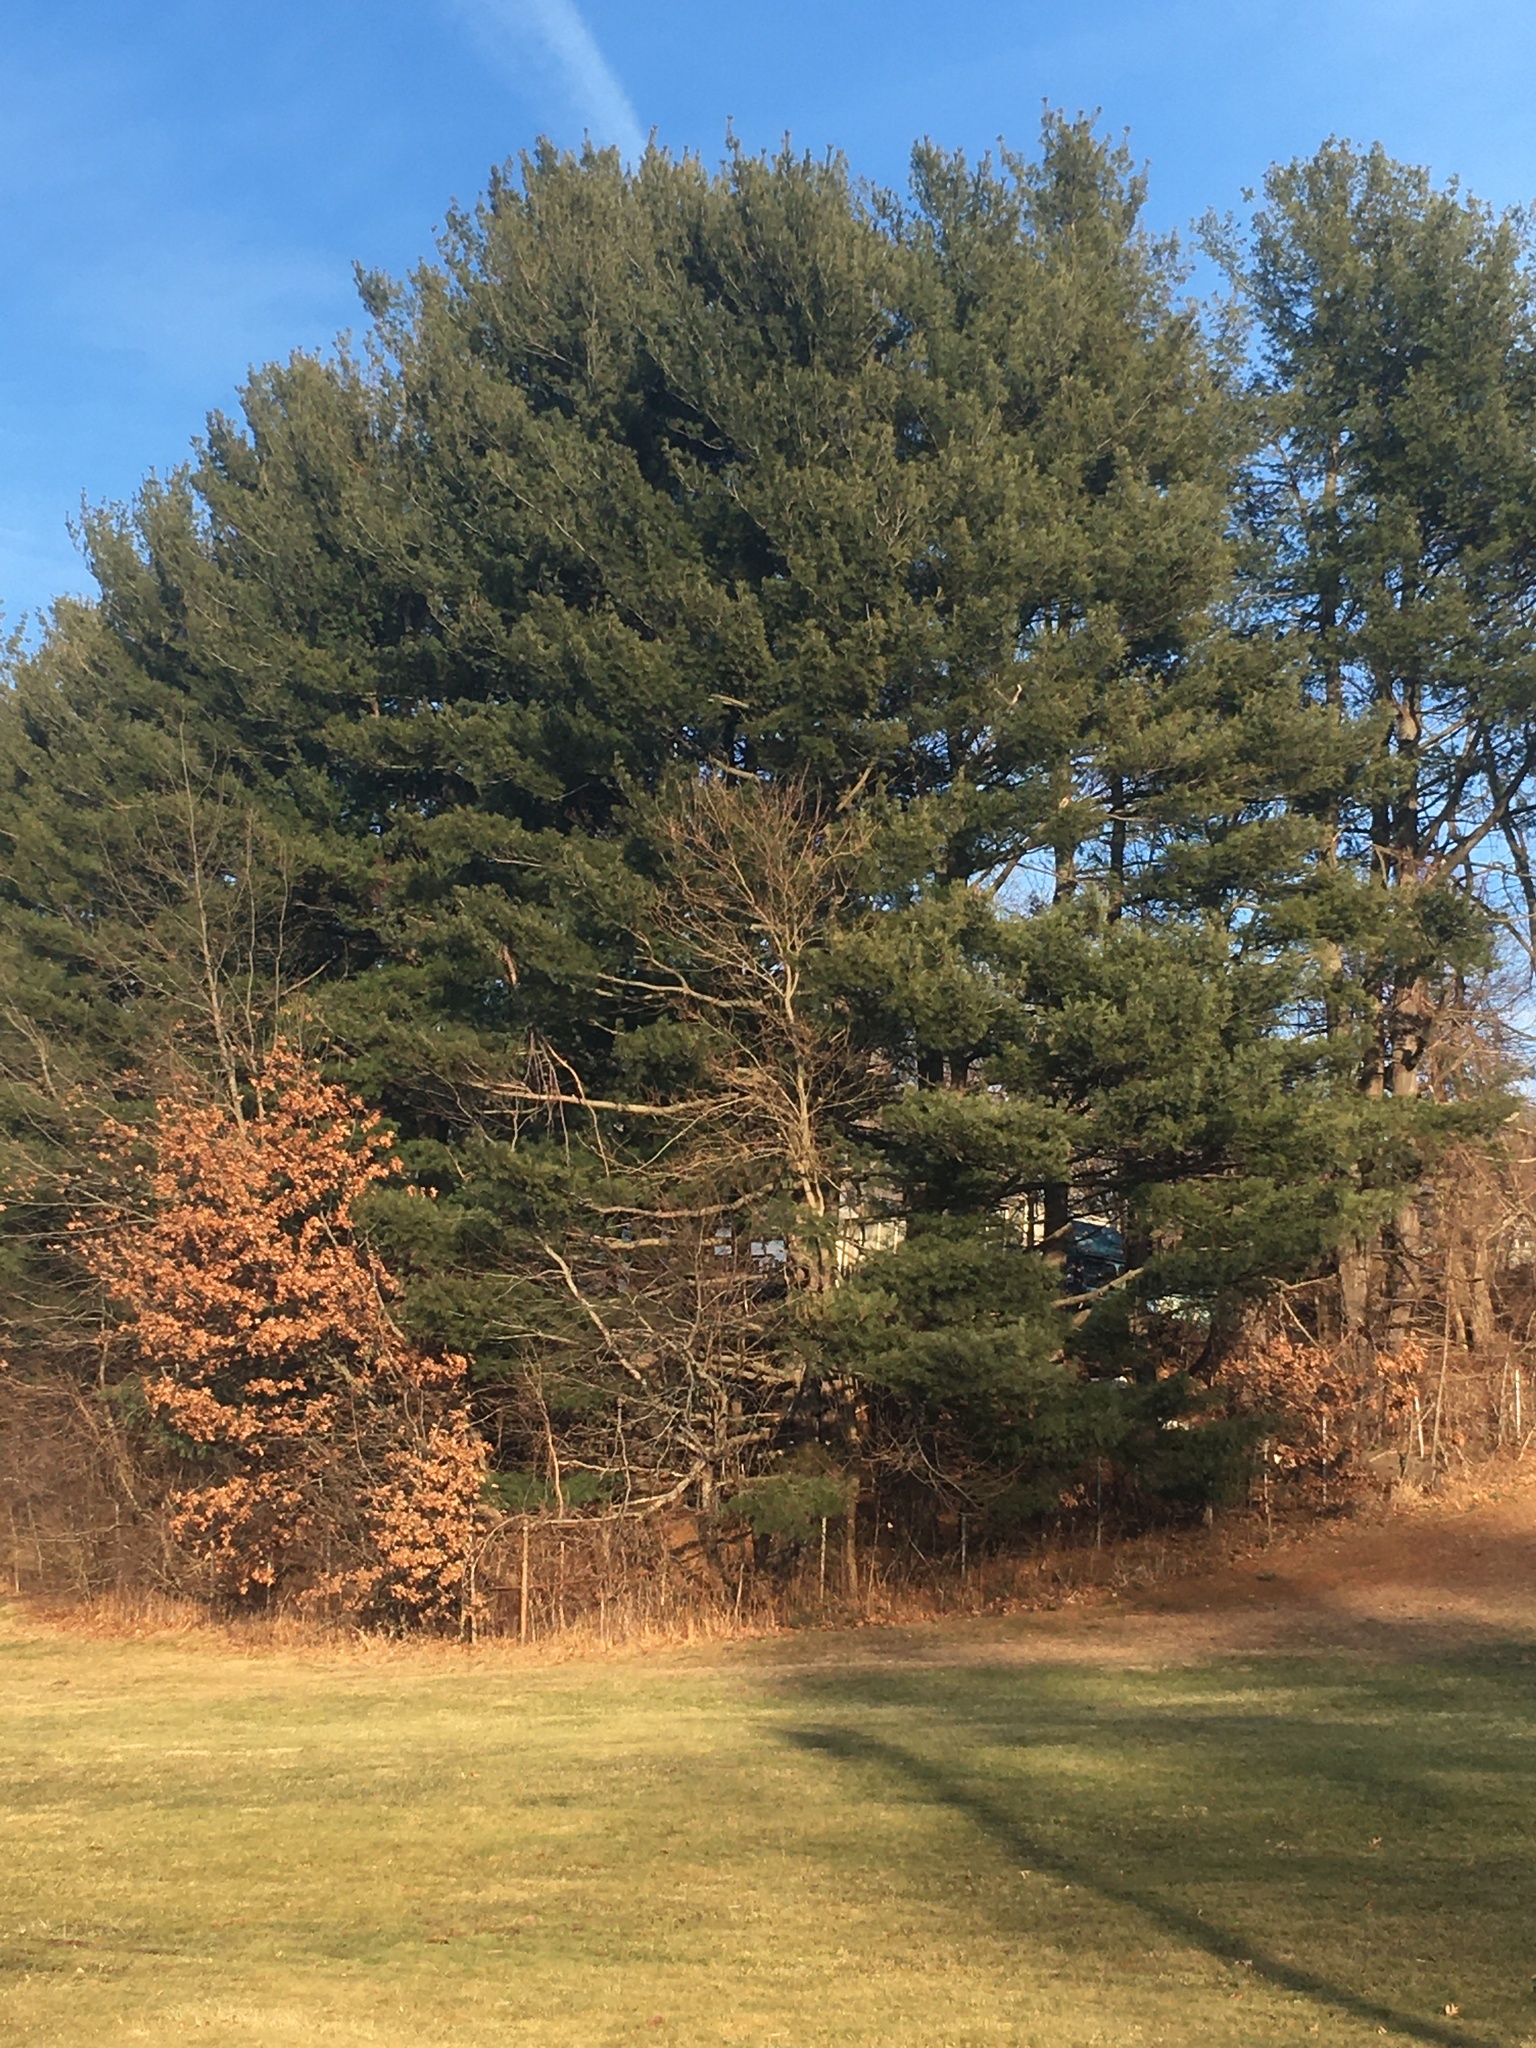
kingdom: Plantae
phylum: Tracheophyta
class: Pinopsida
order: Pinales
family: Pinaceae
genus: Pinus
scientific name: Pinus strobus
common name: Weymouth pine
